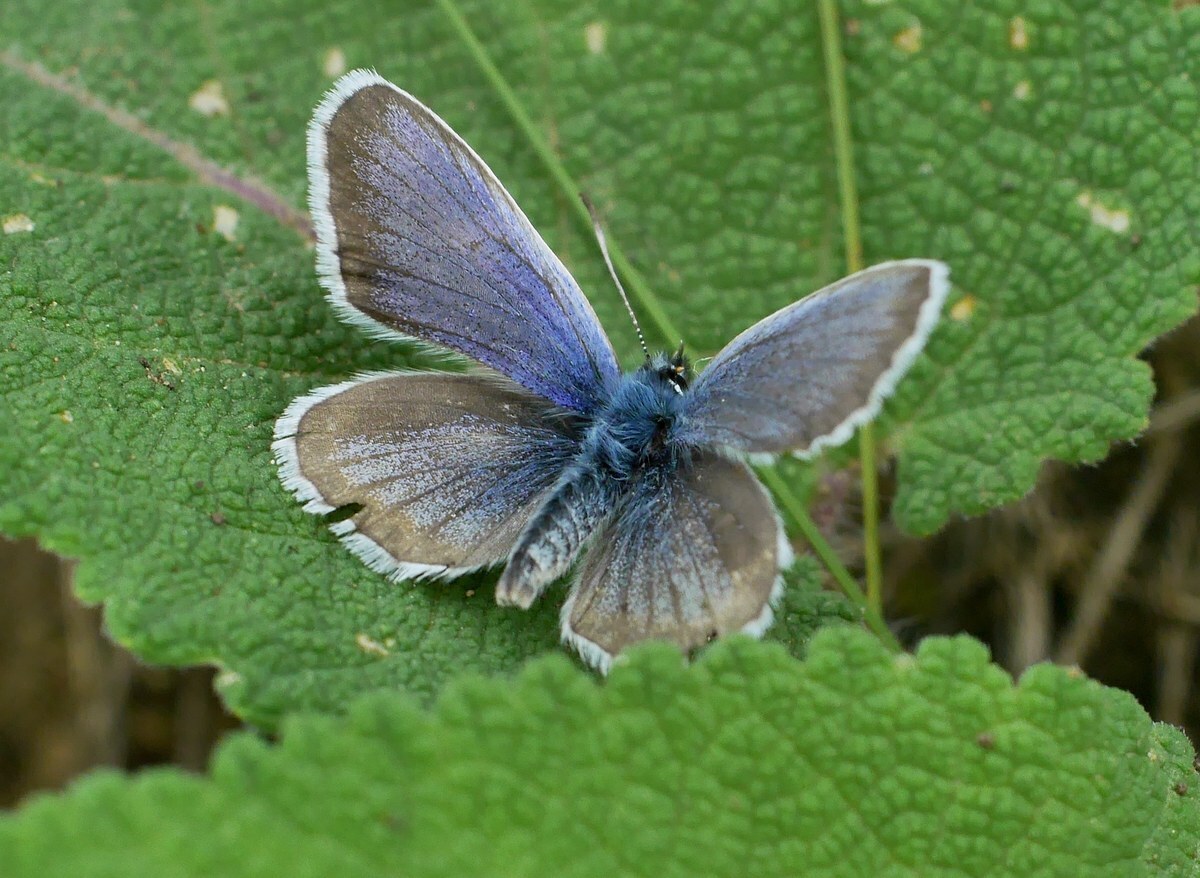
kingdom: Animalia
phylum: Arthropoda
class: Insecta
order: Lepidoptera
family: Lycaenidae
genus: Plebejus
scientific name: Plebejus argus
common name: Silver-studded blue
